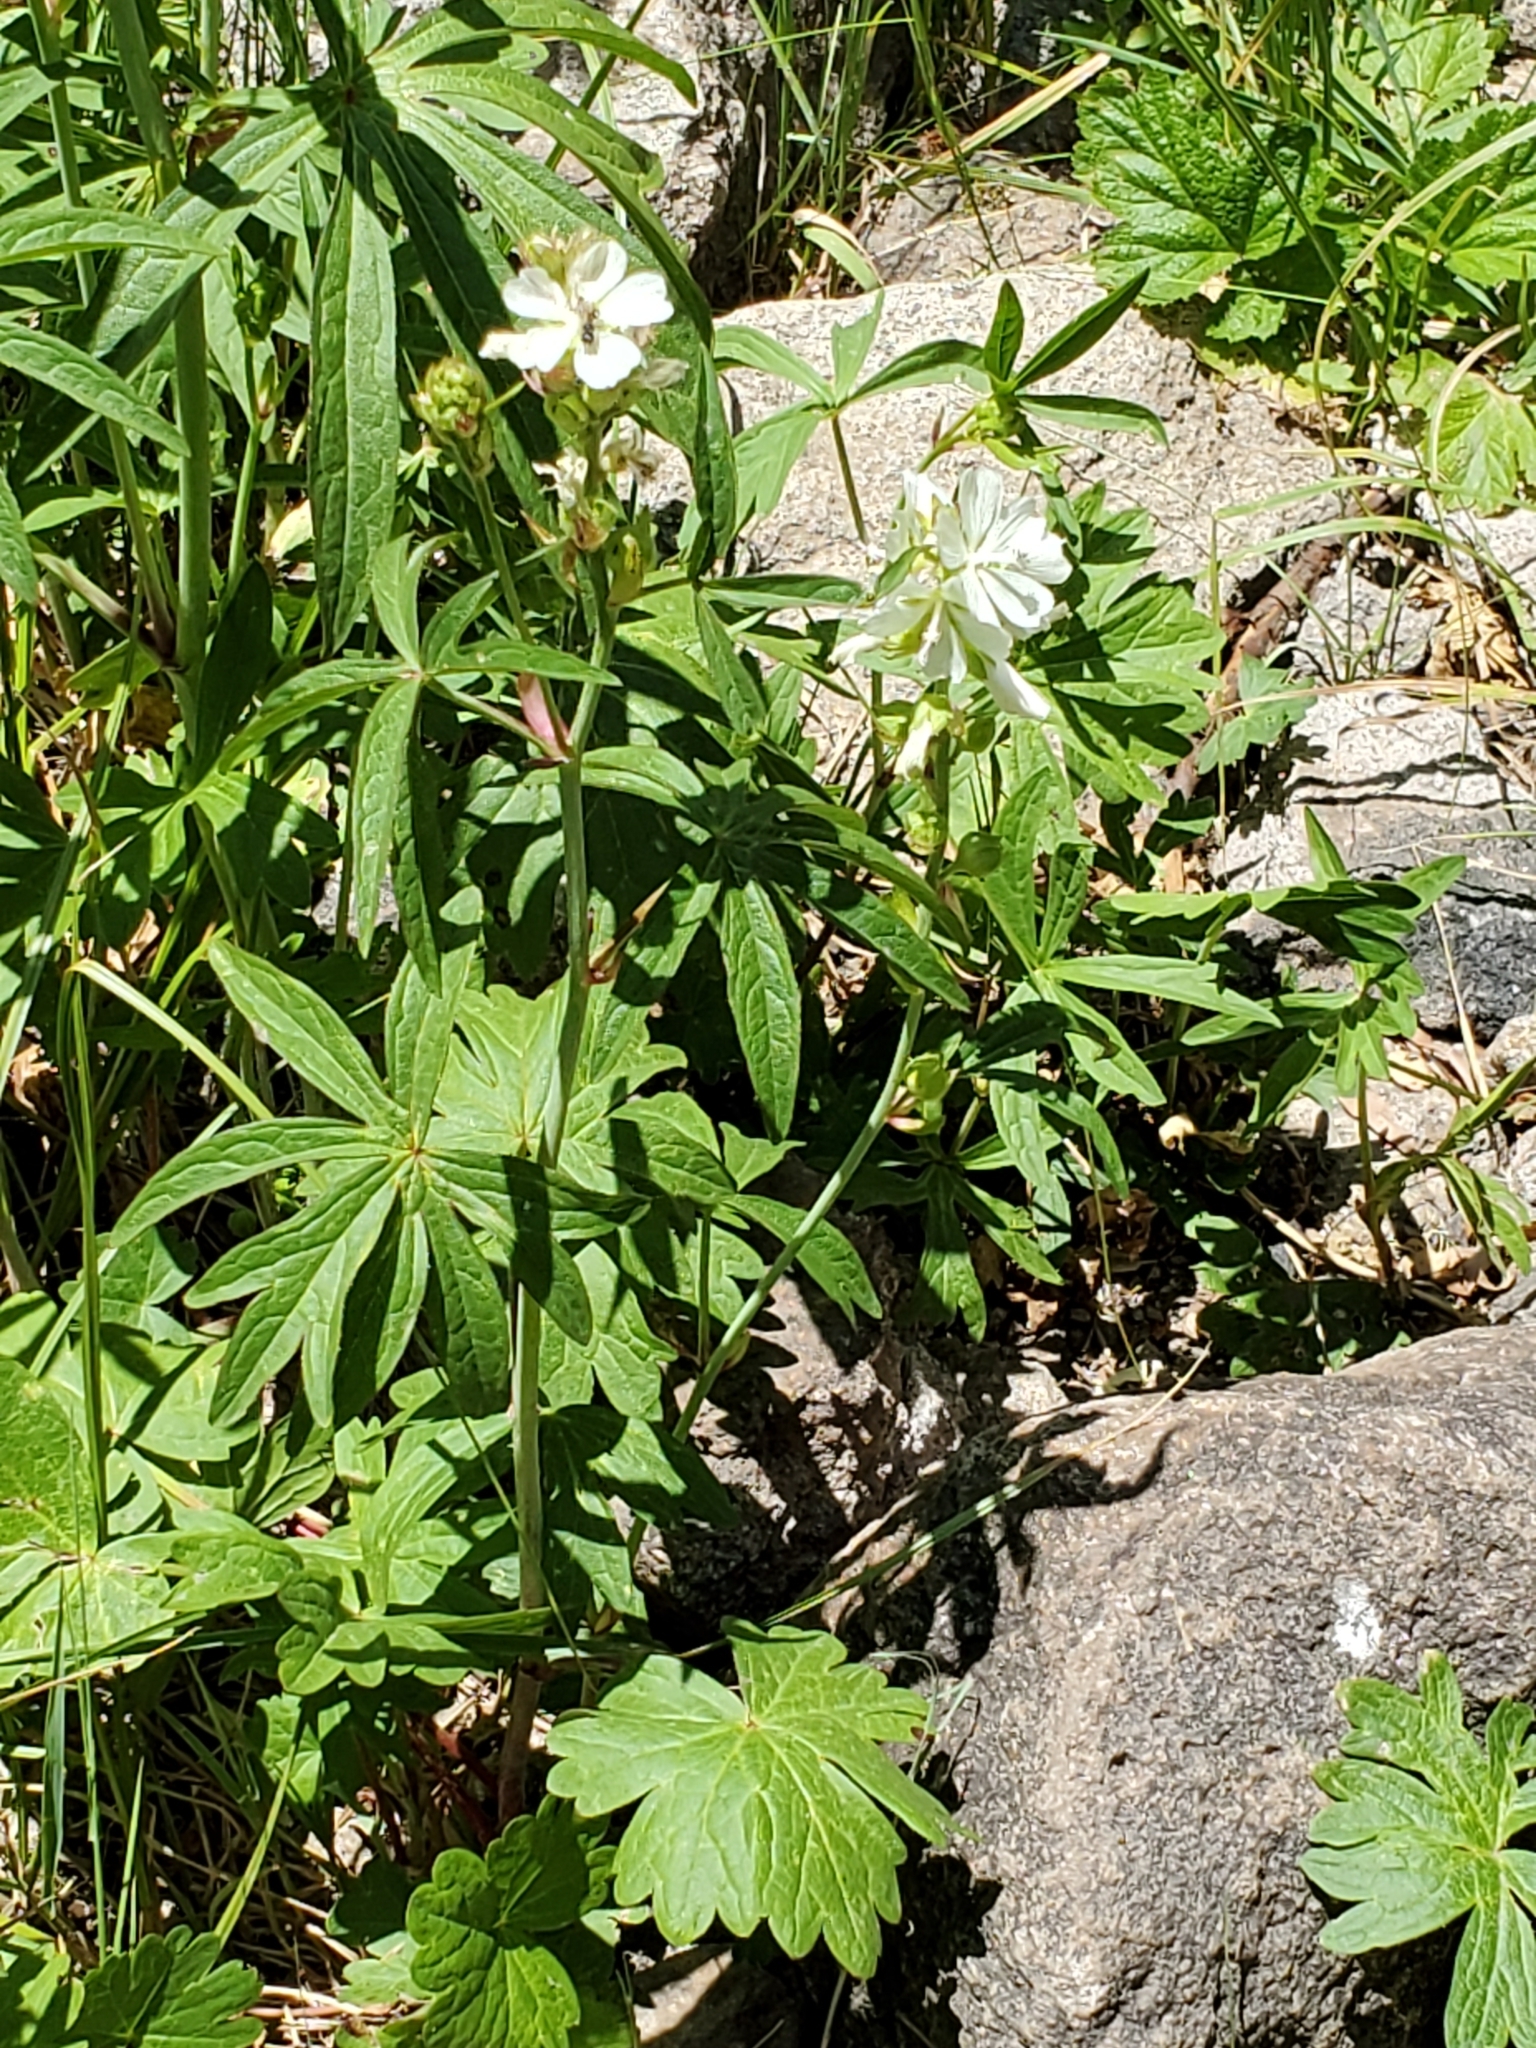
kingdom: Plantae
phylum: Tracheophyta
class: Magnoliopsida
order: Malvales
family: Malvaceae
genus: Sidalcea
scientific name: Sidalcea candida
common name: Prairie-mallow
